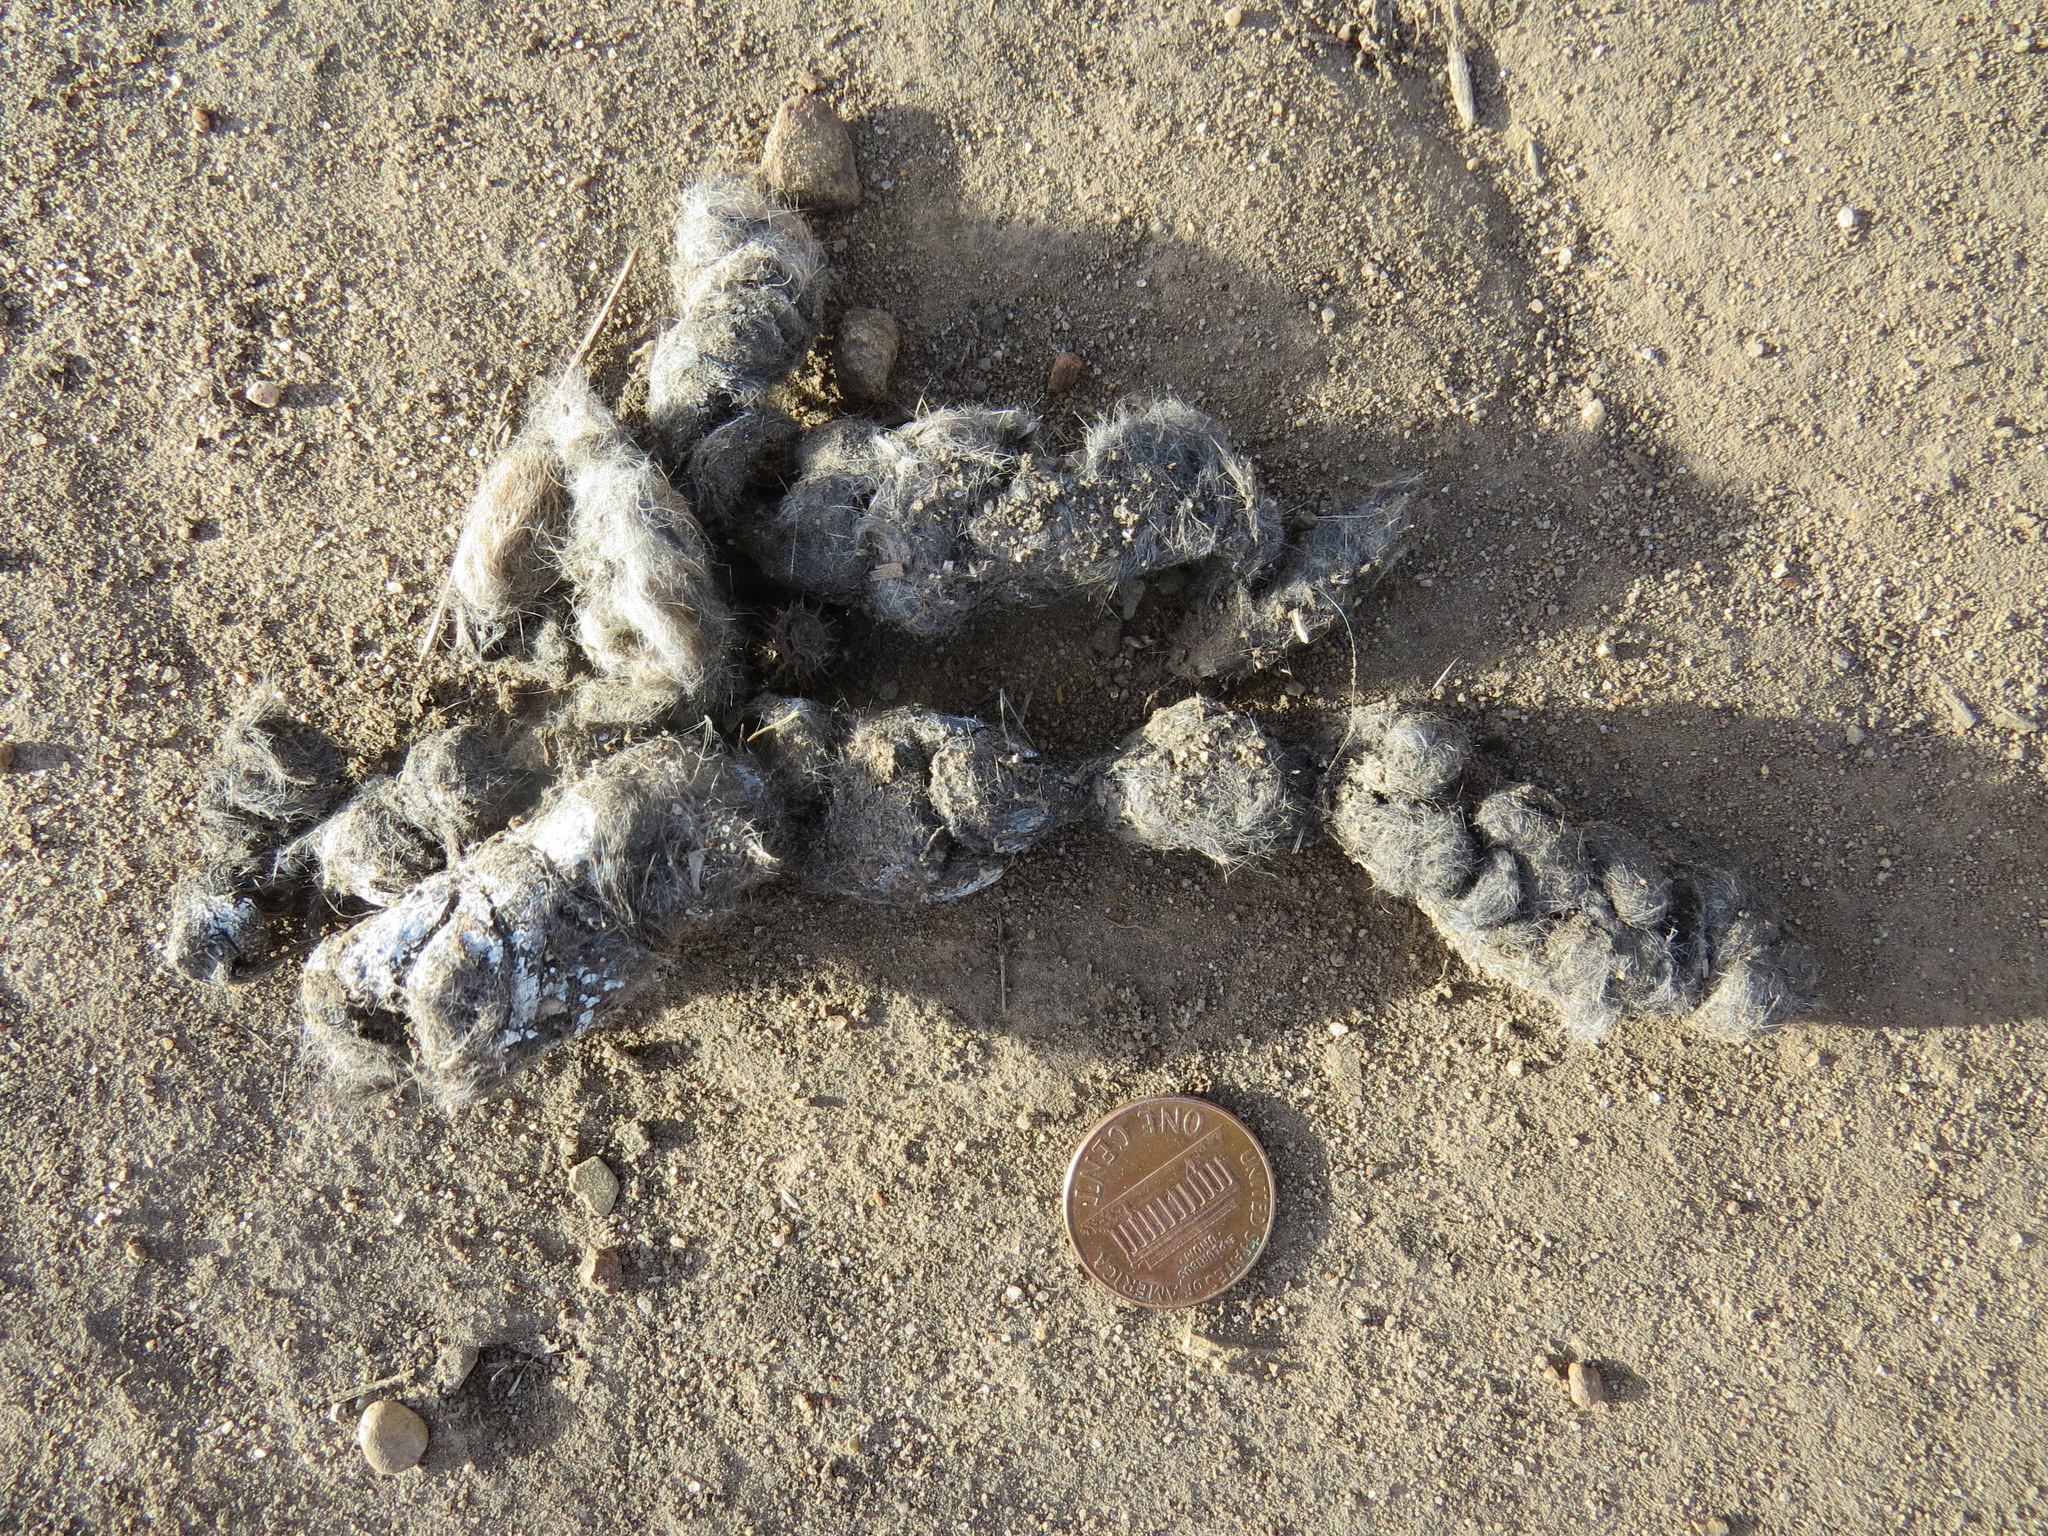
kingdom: Animalia
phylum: Chordata
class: Mammalia
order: Carnivora
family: Canidae
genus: Urocyon
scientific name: Urocyon cinereoargenteus
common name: Gray fox
